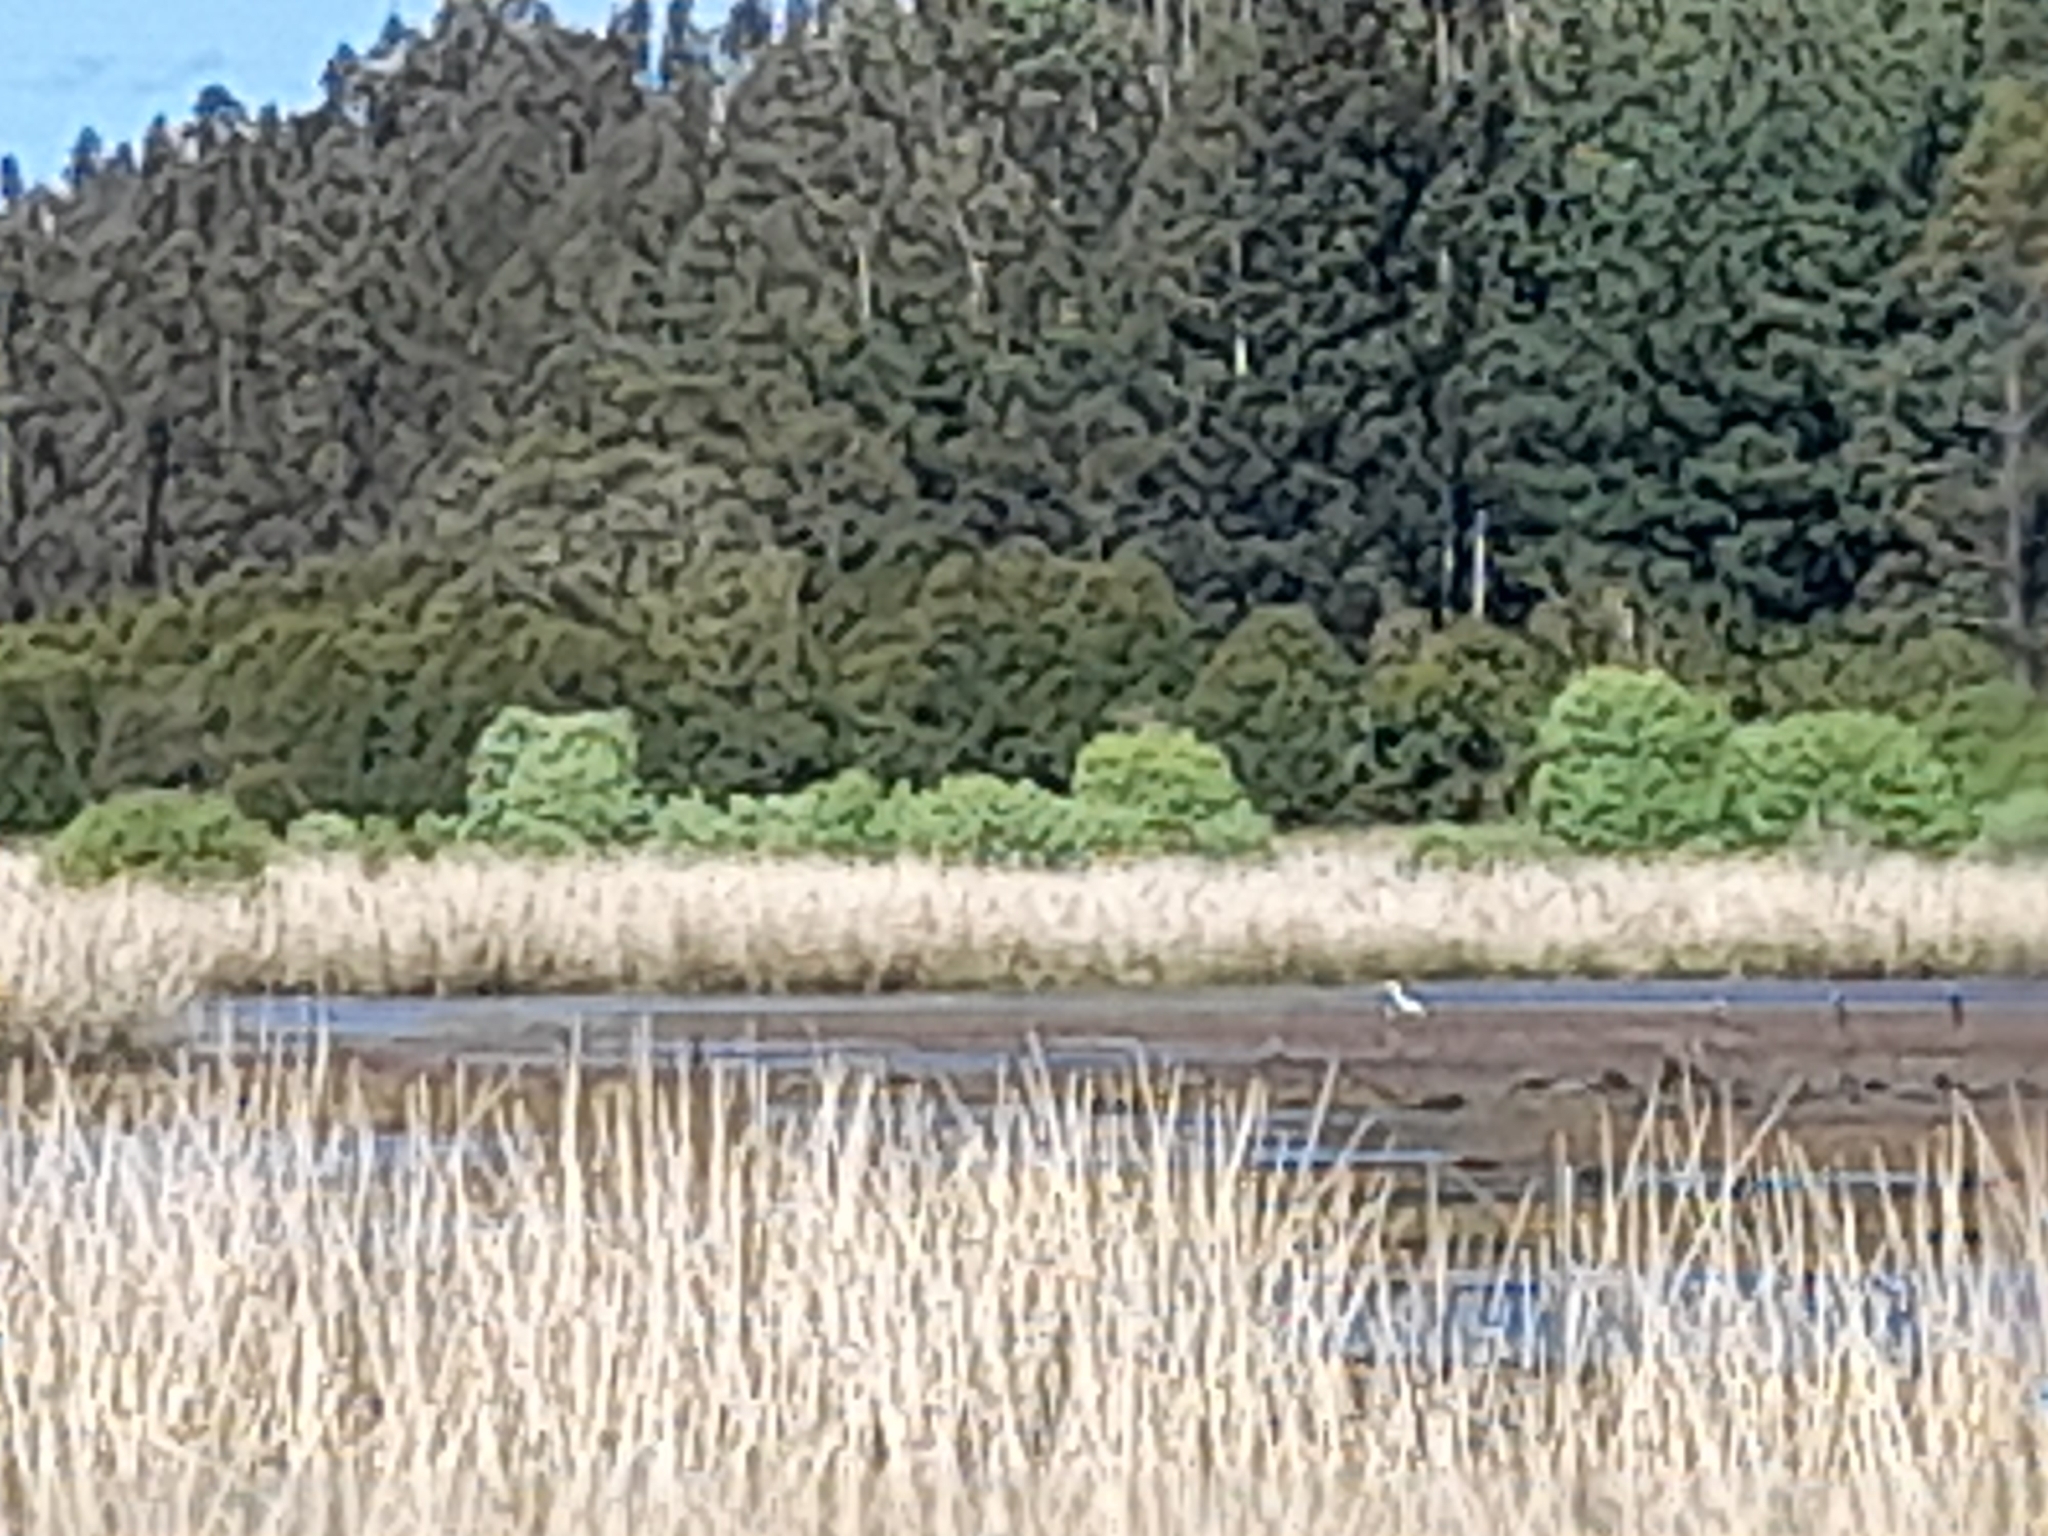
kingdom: Animalia
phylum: Chordata
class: Aves
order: Pelecaniformes
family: Ardeidae
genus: Ardea
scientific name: Ardea cocoi
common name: Cocoi heron
